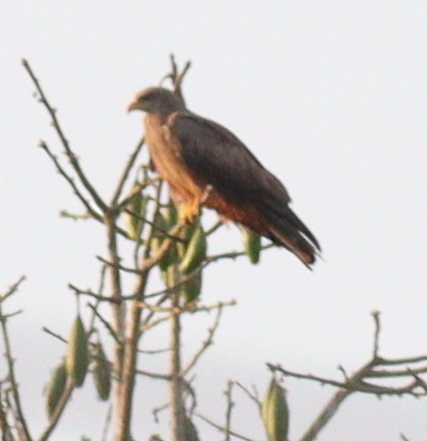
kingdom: Animalia
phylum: Chordata
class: Aves
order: Accipitriformes
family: Accipitridae
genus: Milvus
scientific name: Milvus migrans
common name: Black kite
